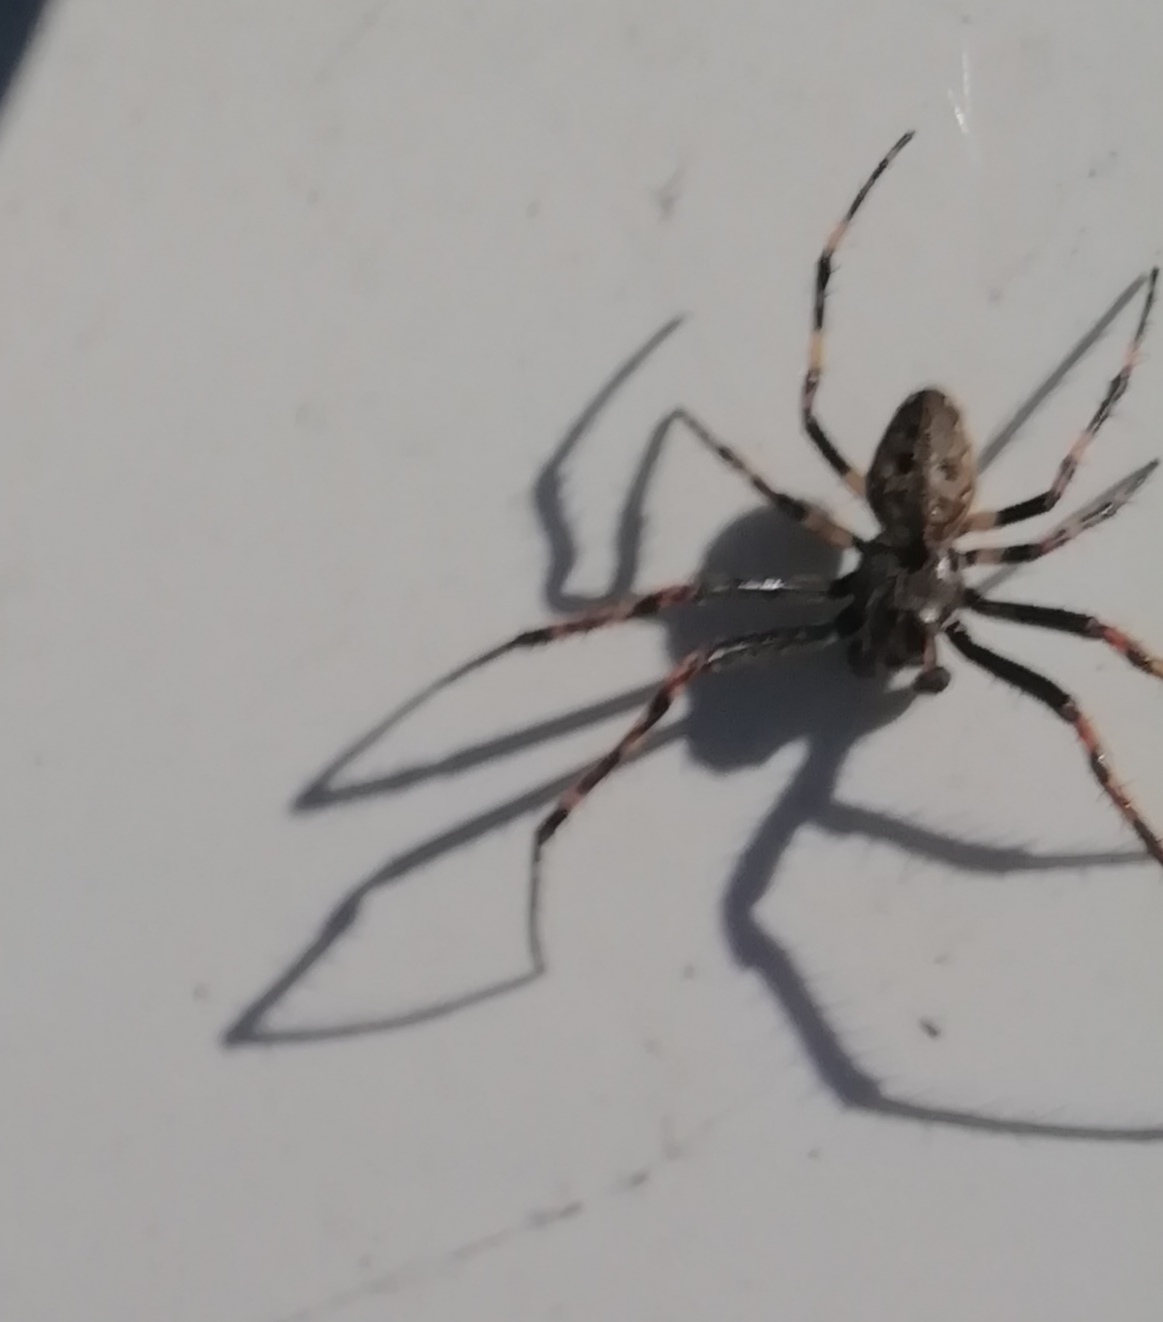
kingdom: Animalia
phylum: Arthropoda
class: Arachnida
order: Araneae
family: Araneidae
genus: Nuctenea
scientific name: Nuctenea umbratica
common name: Toad spider
